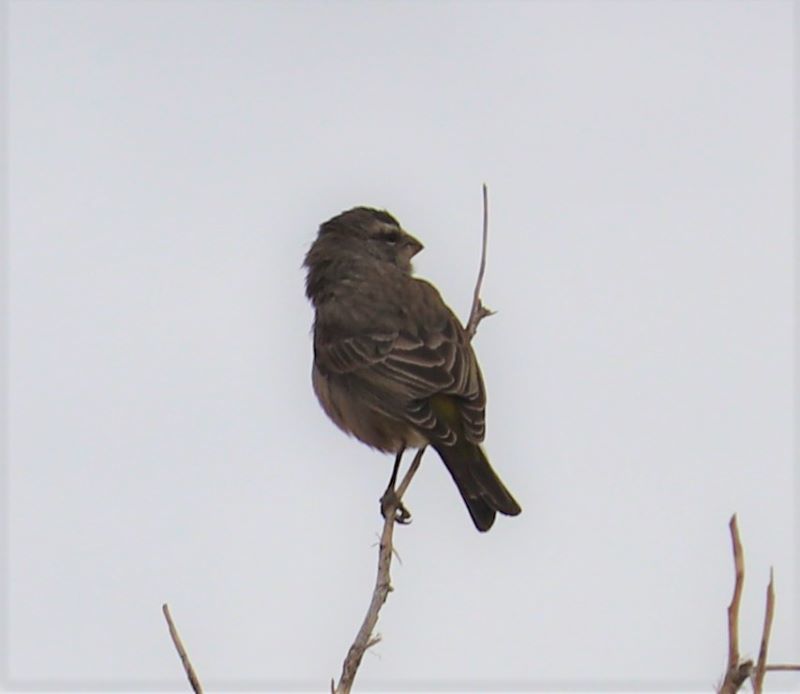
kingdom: Animalia
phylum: Chordata
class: Aves
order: Passeriformes
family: Fringillidae
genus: Crithagra
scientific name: Crithagra albogularis
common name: White-throated canary
